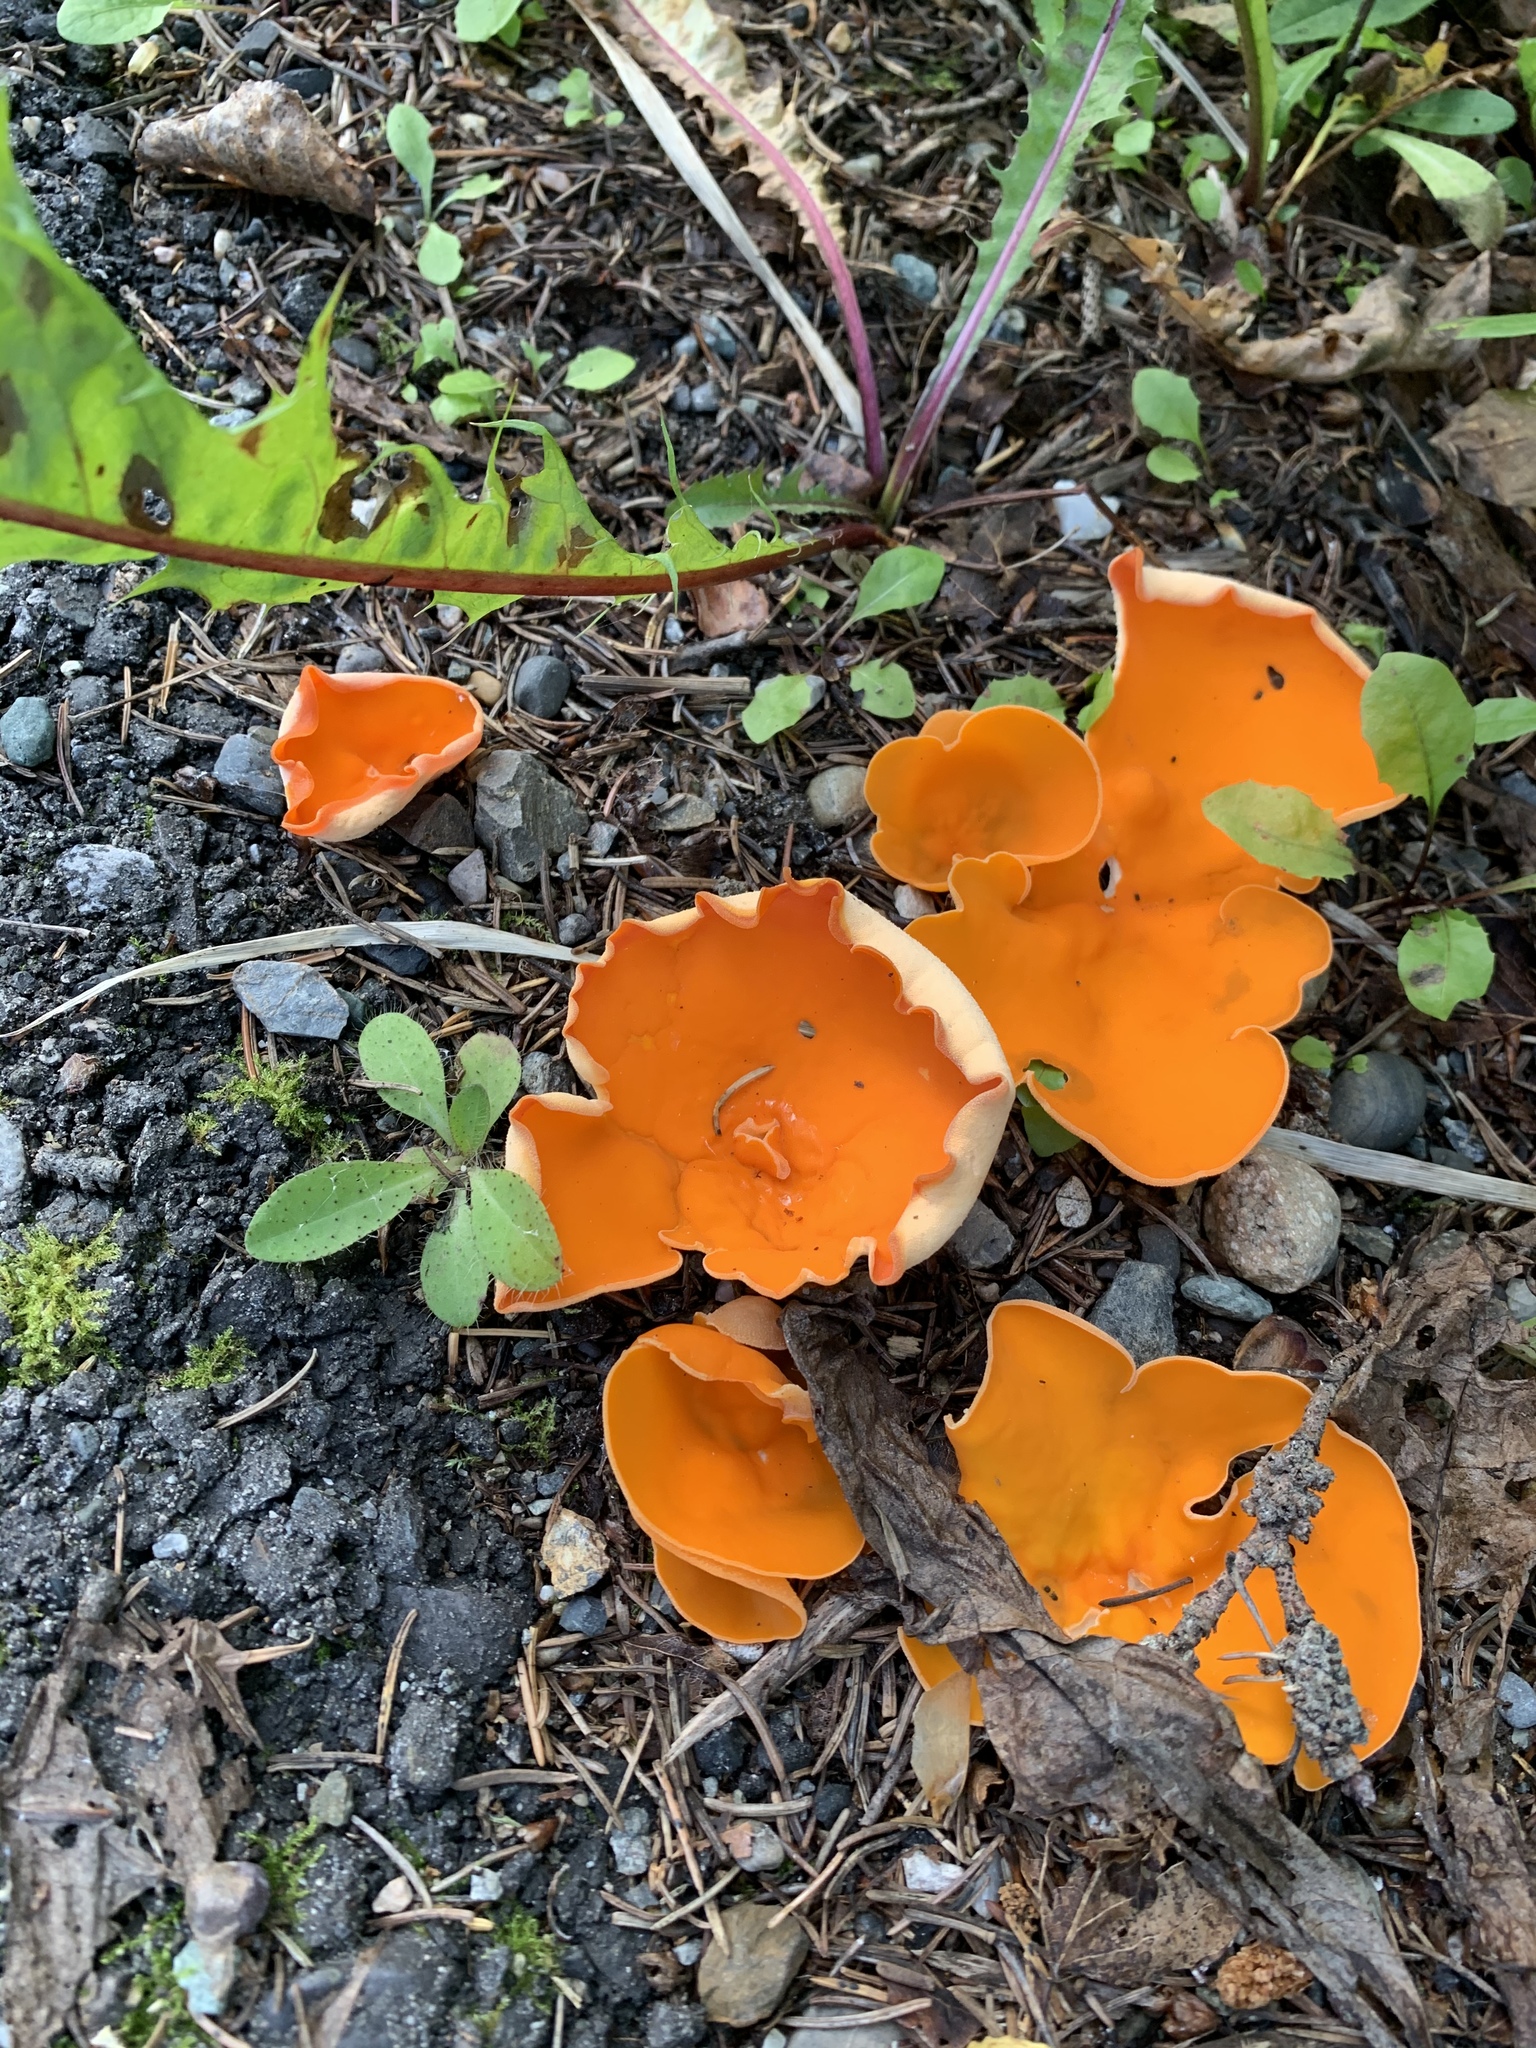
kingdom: Fungi
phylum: Ascomycota
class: Pezizomycetes
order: Pezizales
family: Pyronemataceae
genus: Aleuria
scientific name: Aleuria aurantia
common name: Orange peel fungus
